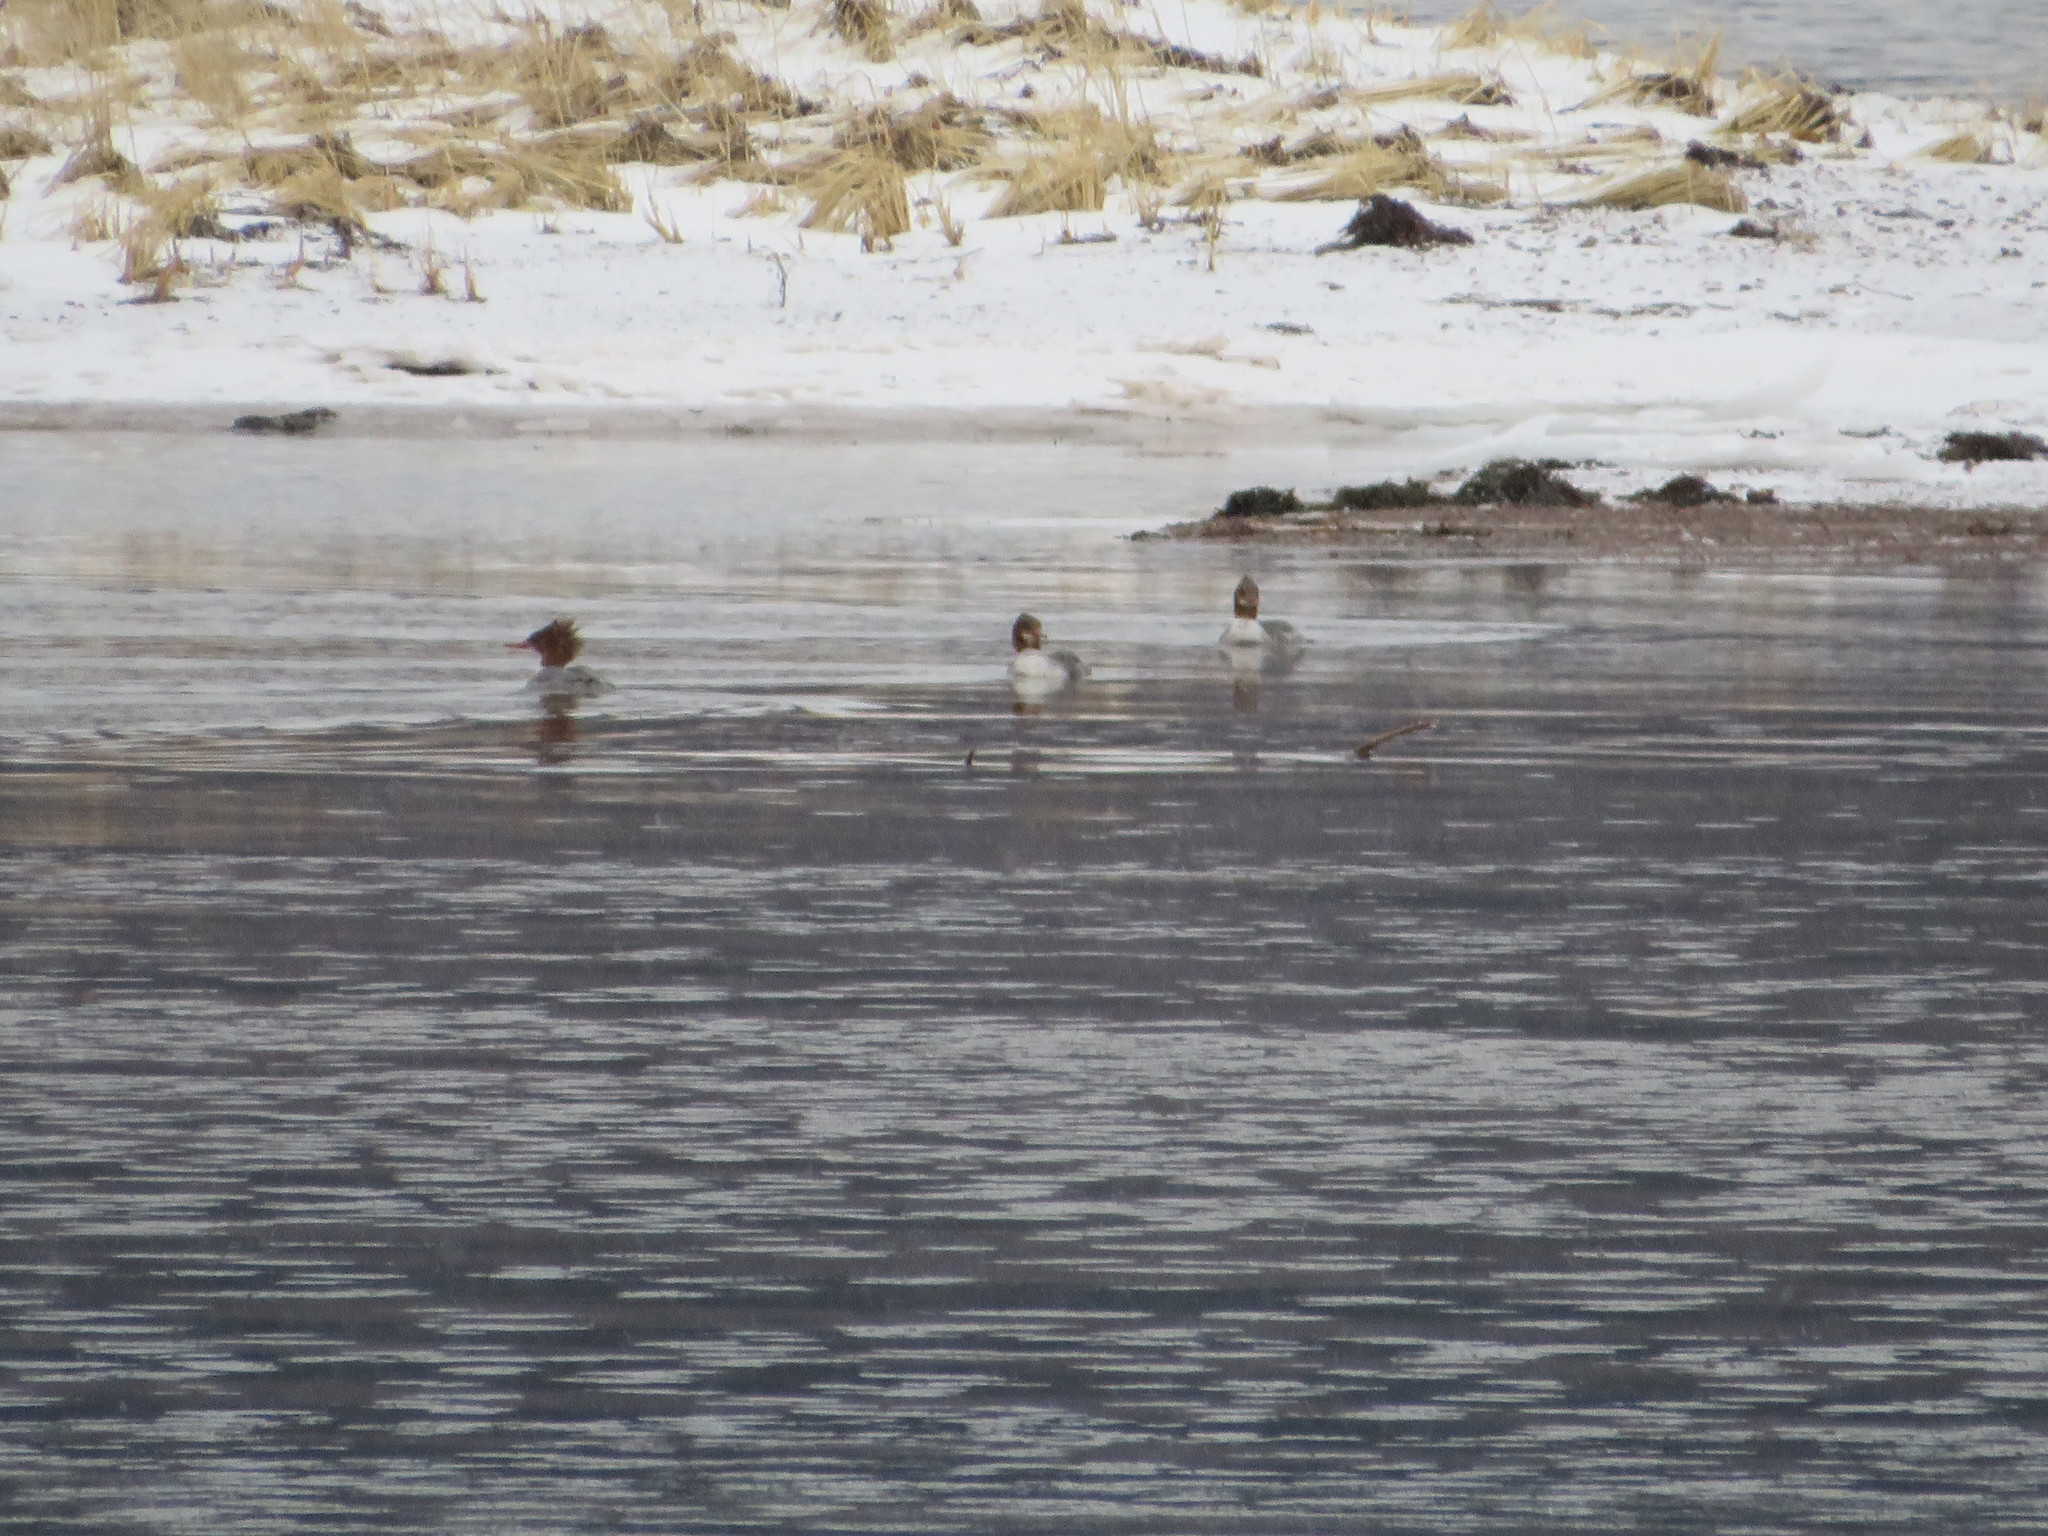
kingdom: Animalia
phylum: Chordata
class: Aves
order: Anseriformes
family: Anatidae
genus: Mergus
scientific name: Mergus merganser
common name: Common merganser
